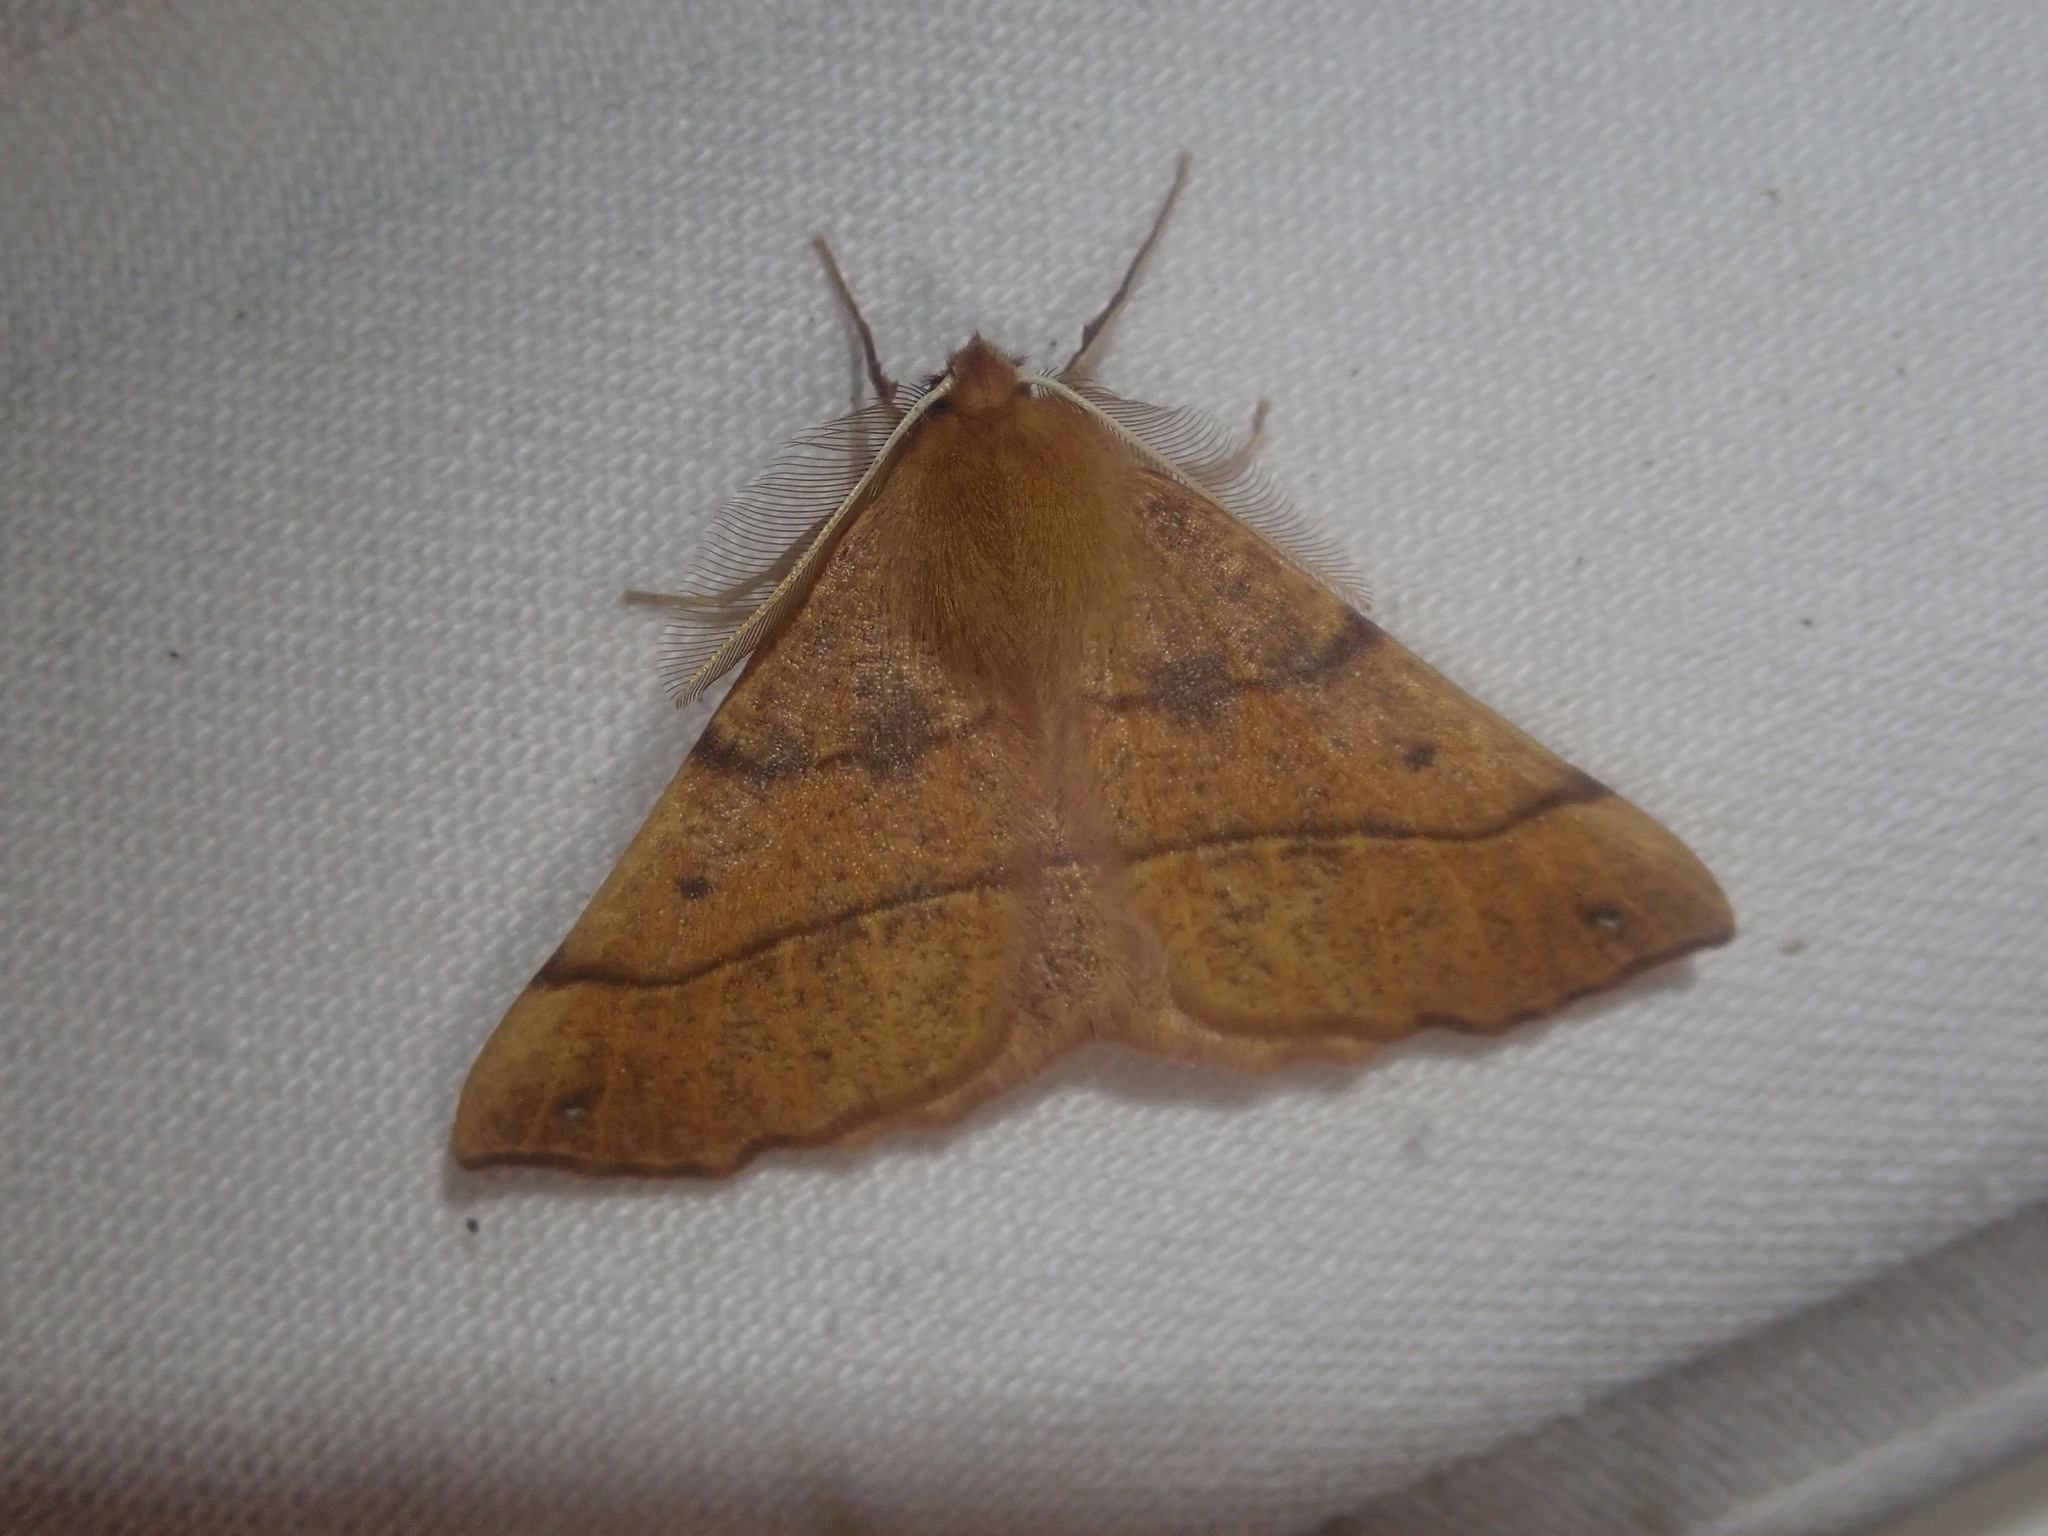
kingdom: Animalia
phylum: Arthropoda
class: Insecta
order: Lepidoptera
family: Geometridae
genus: Colotois
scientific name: Colotois pennaria
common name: Feathered thorn
